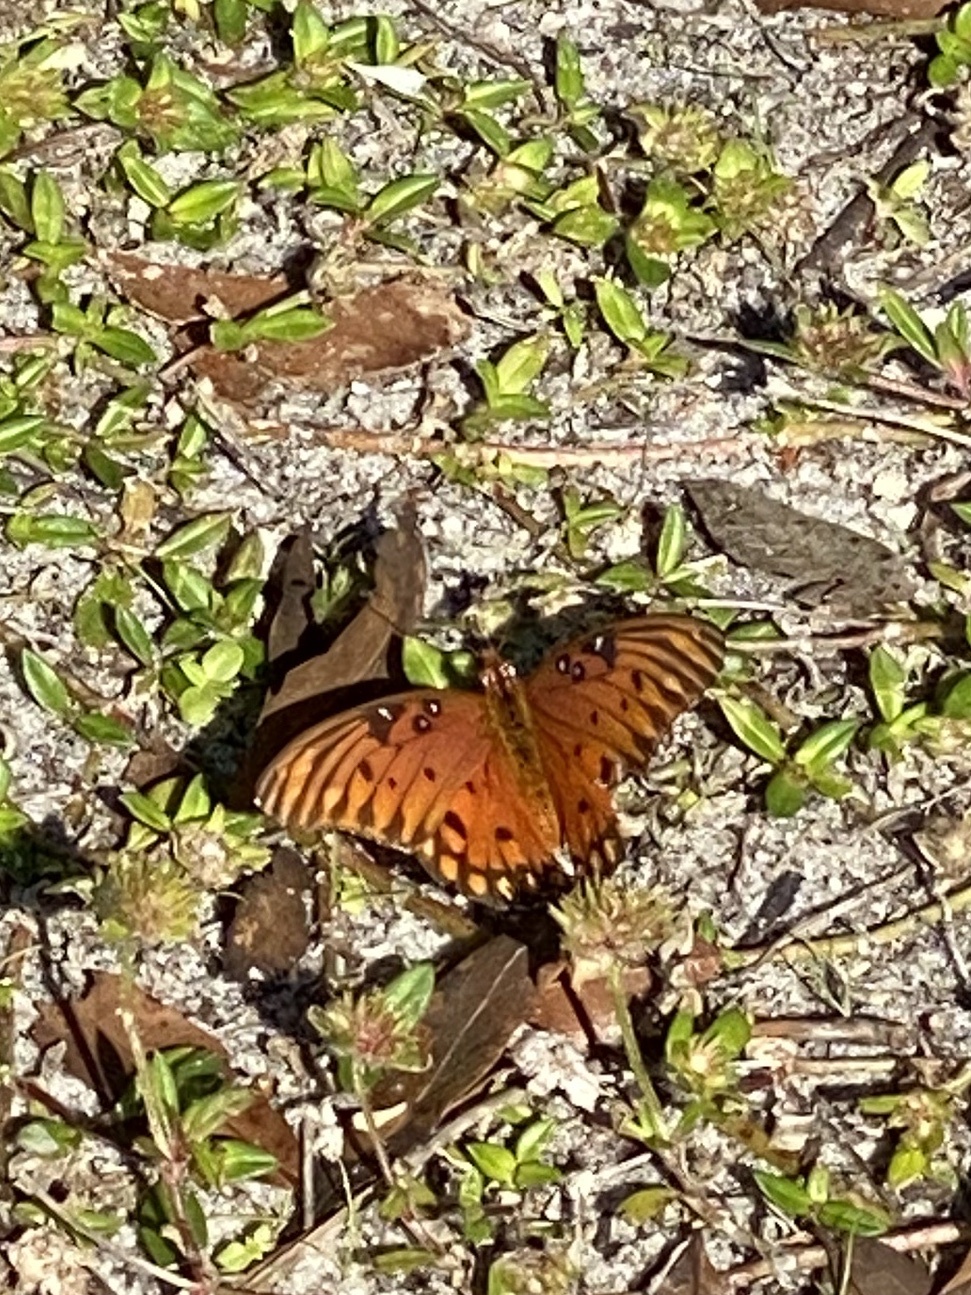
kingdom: Animalia
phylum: Arthropoda
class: Insecta
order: Lepidoptera
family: Nymphalidae
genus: Dione
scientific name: Dione vanillae
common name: Gulf fritillary
